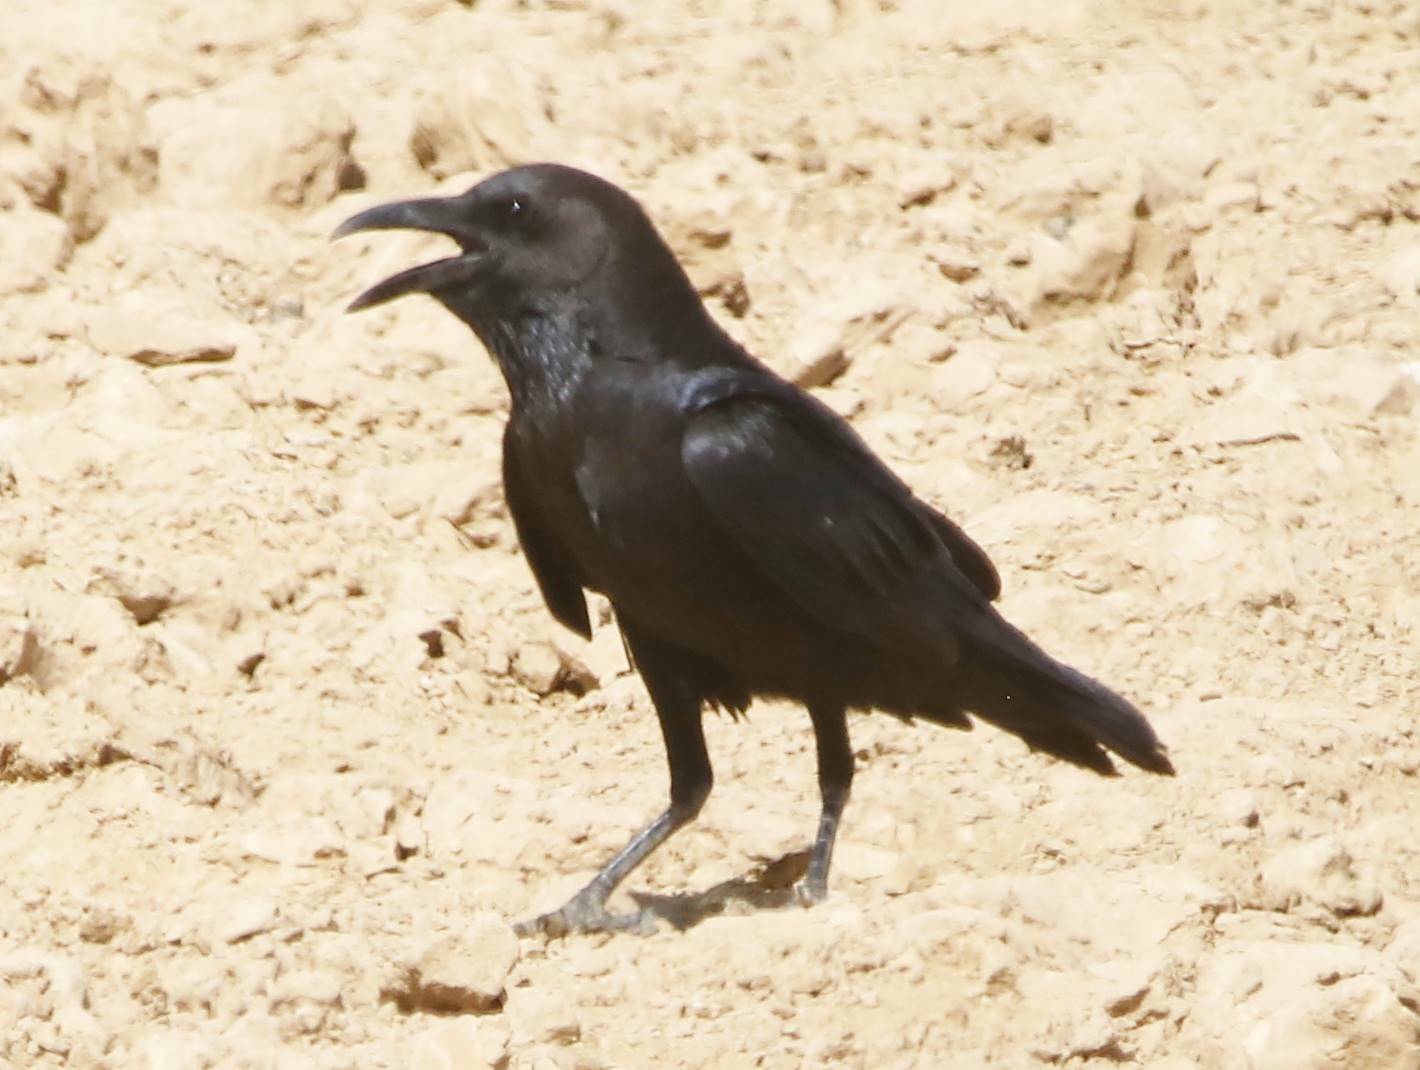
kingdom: Animalia
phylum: Chordata
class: Aves
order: Passeriformes
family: Corvidae
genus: Corvus
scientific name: Corvus ruficollis
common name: Brown-necked raven
